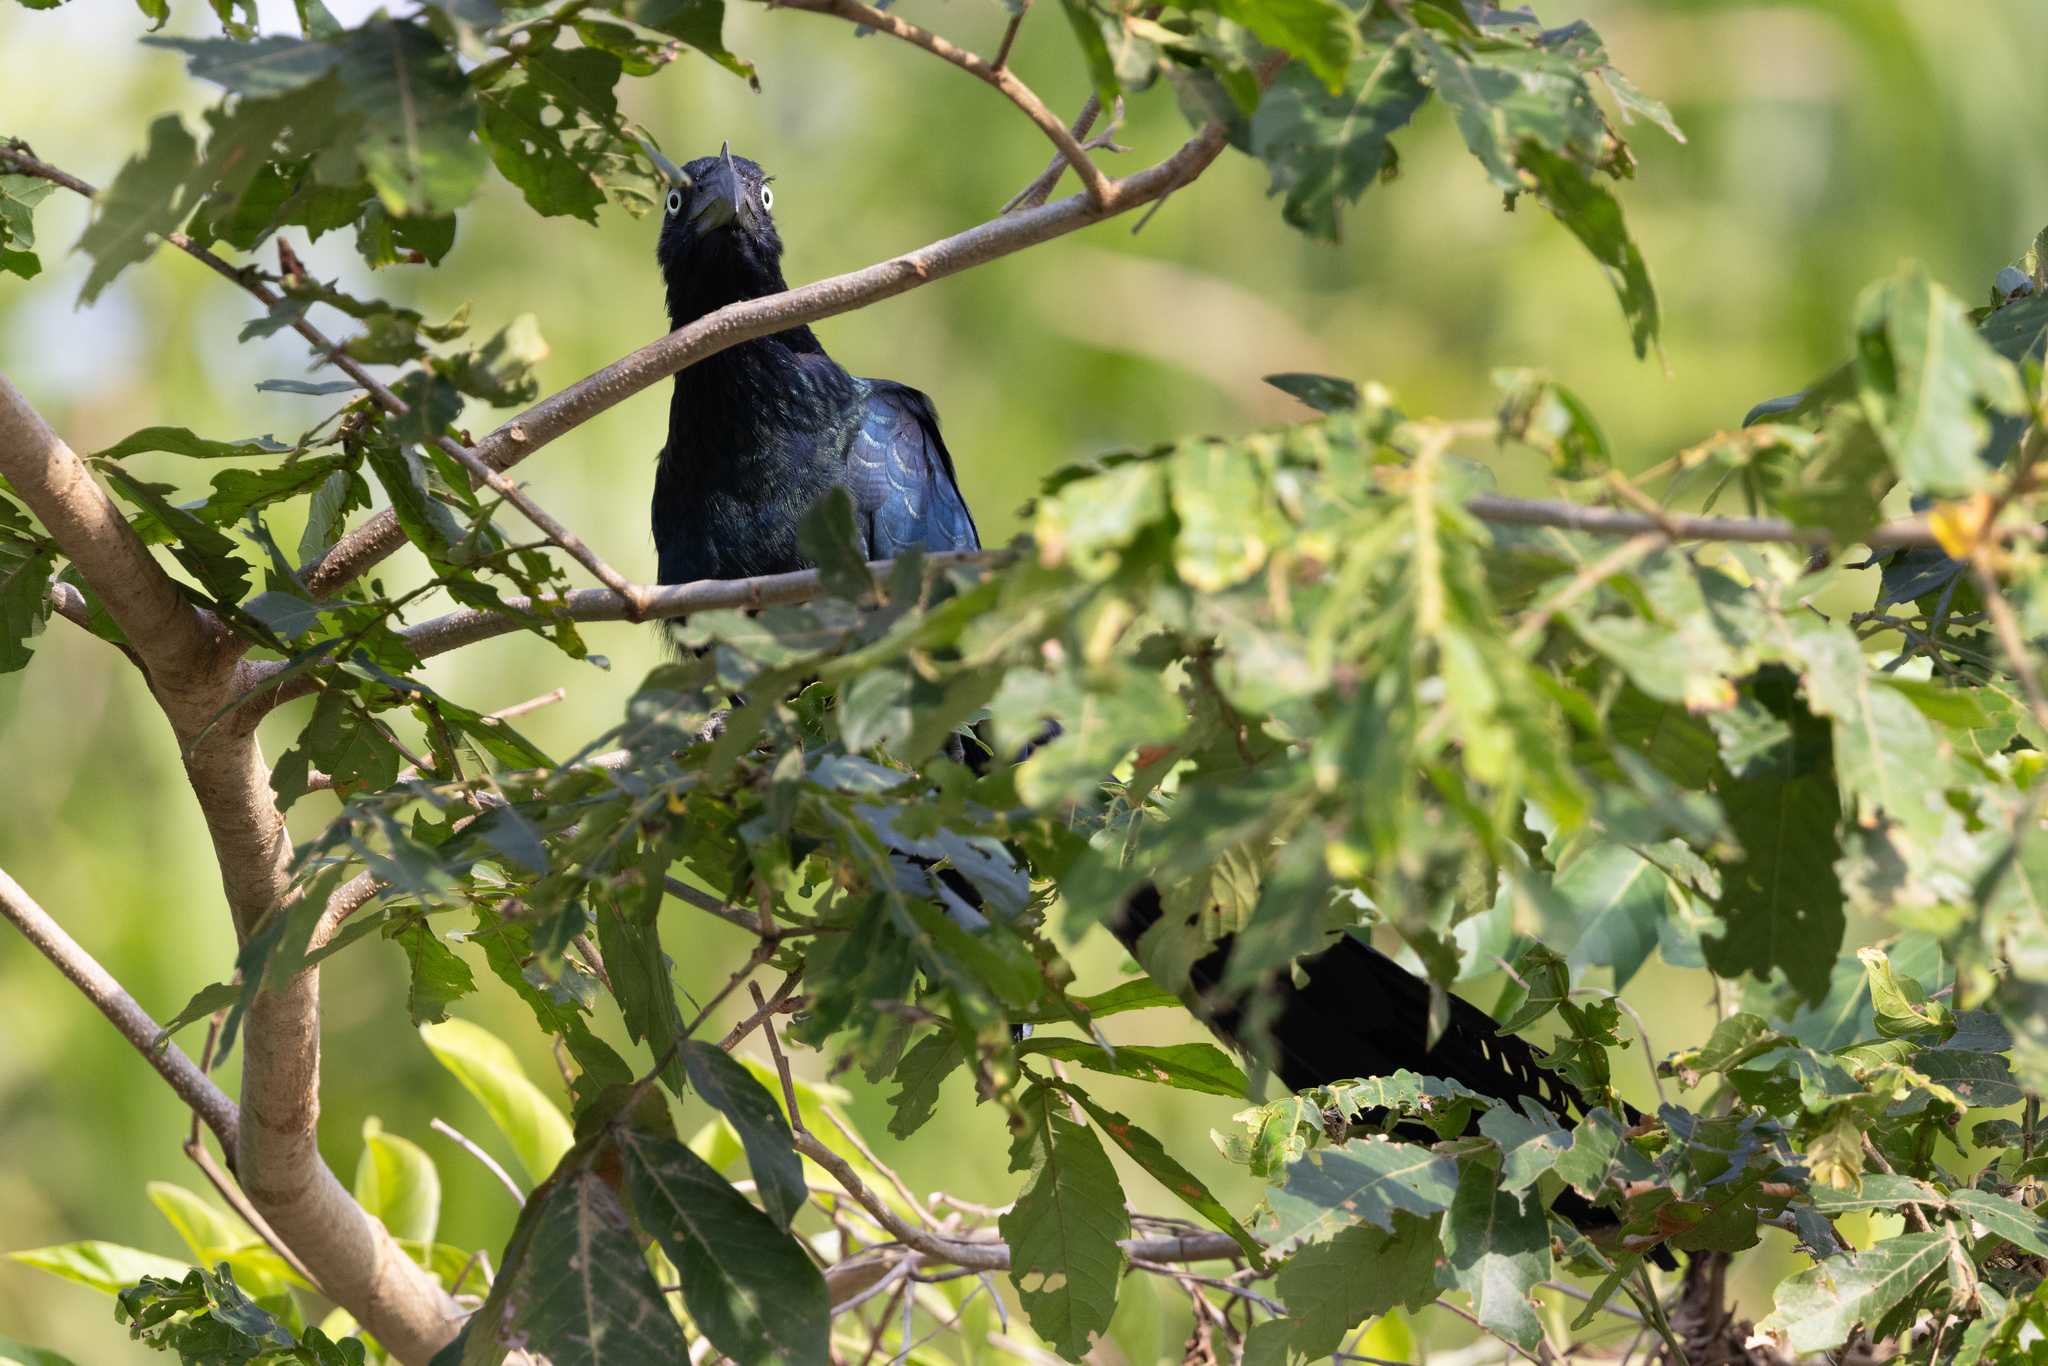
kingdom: Animalia
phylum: Chordata
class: Aves
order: Cuculiformes
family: Cuculidae
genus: Crotophaga
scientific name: Crotophaga major
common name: Greater ani
